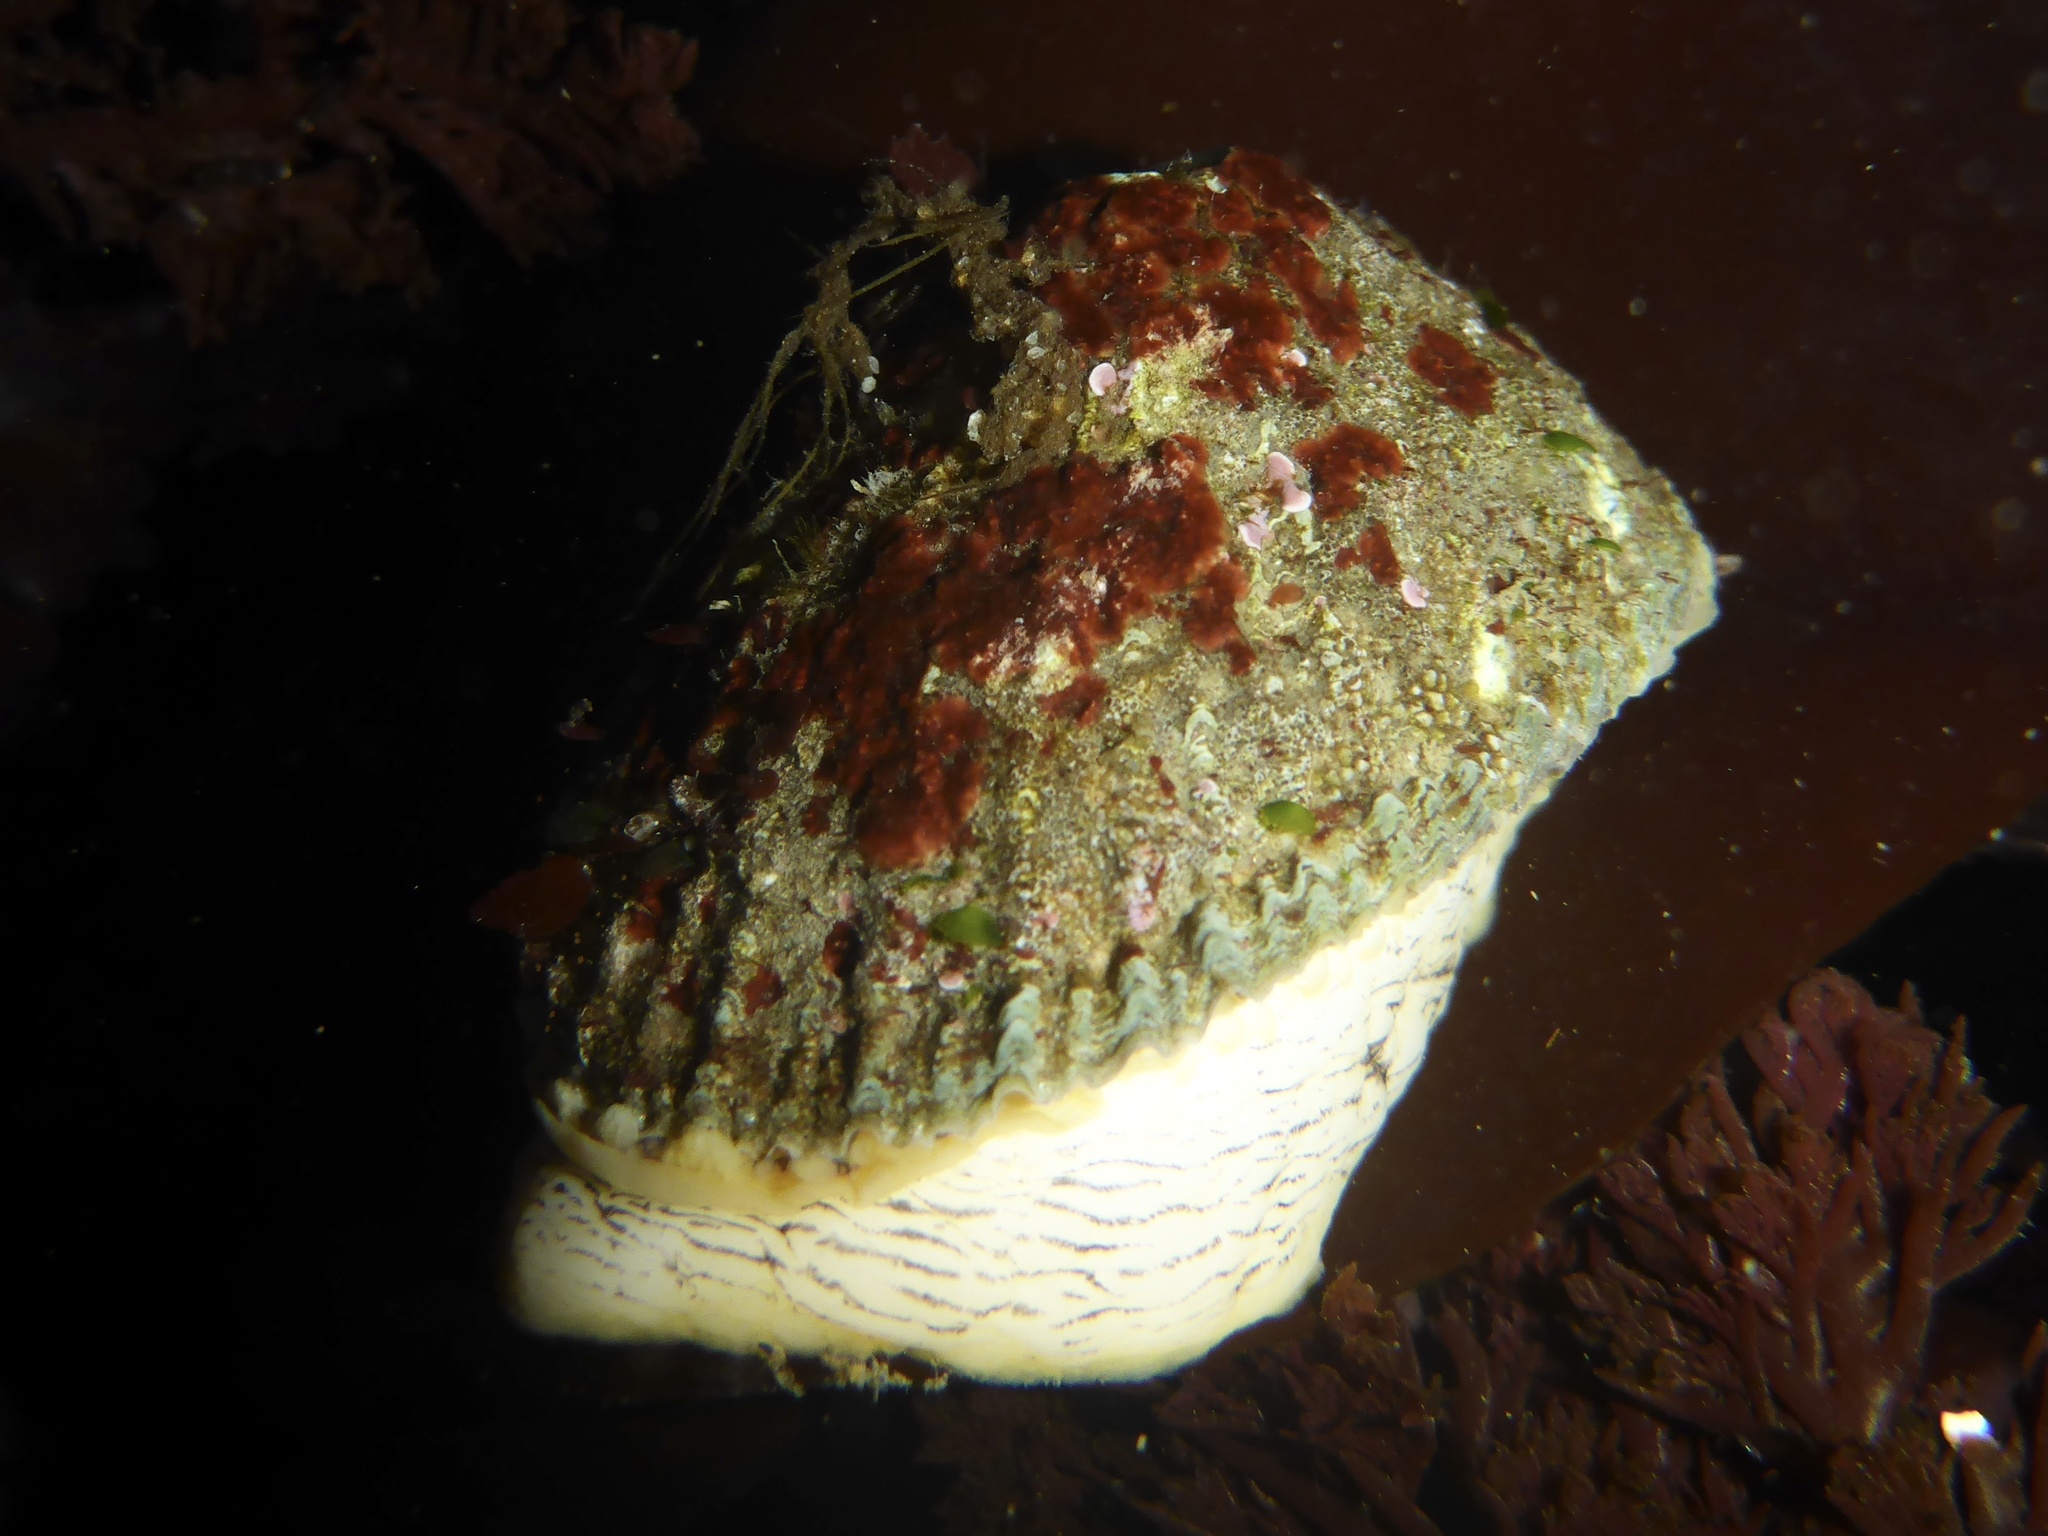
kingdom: Animalia
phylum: Mollusca
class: Gastropoda
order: Lepetellida
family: Fissurellidae
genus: Diodora
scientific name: Diodora aspera
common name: Rough keyhole limpet
